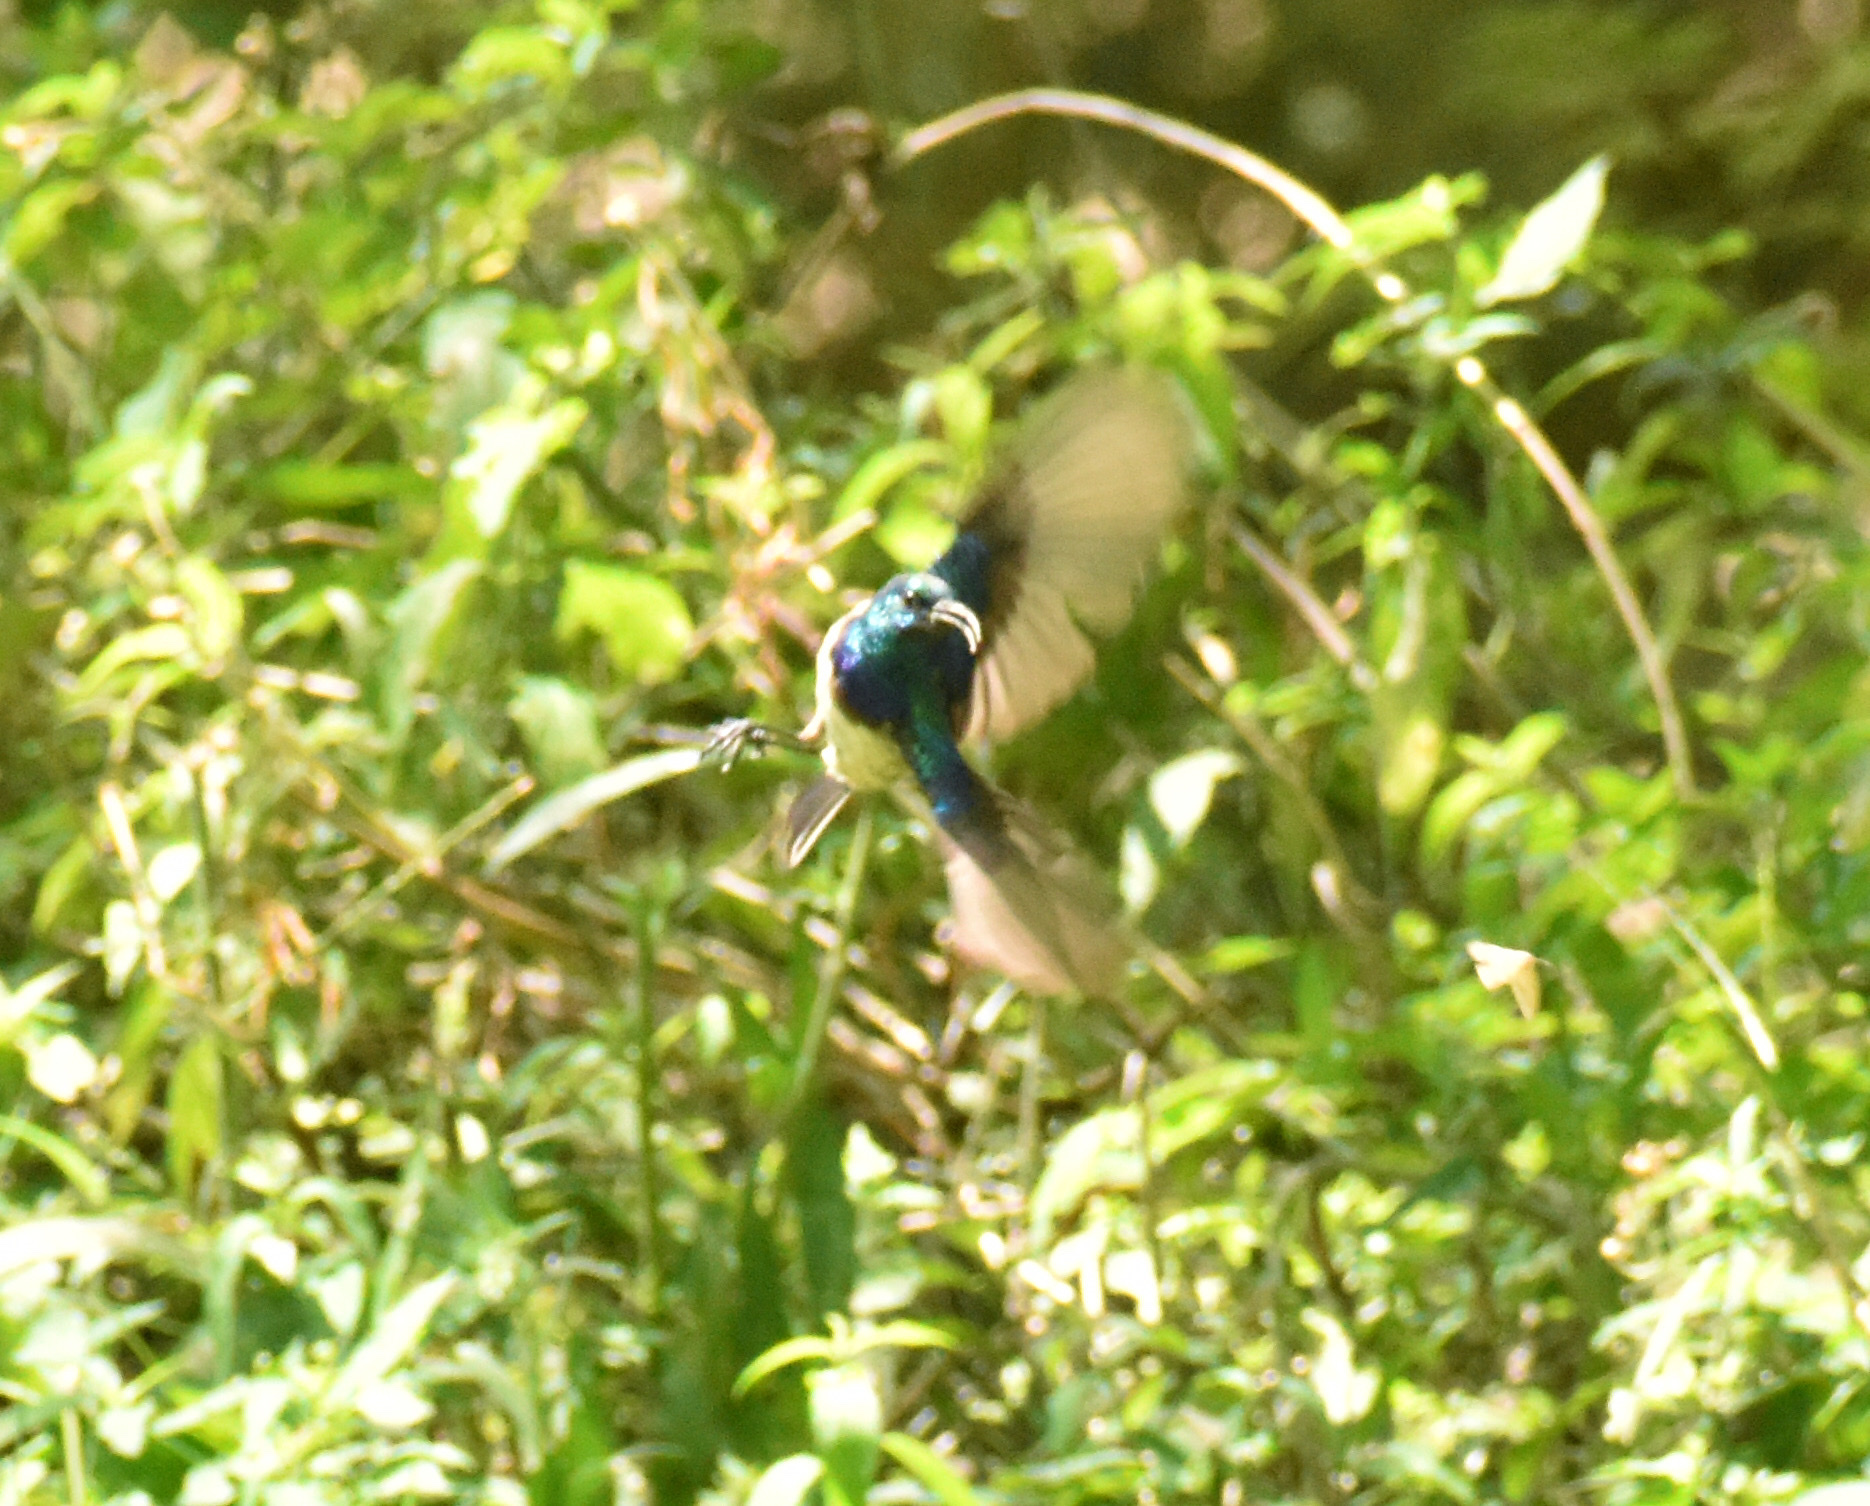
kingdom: Animalia
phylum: Chordata
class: Aves
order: Passeriformes
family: Nectariniidae
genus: Cinnyris
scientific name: Cinnyris talatala
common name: White-bellied sunbird
